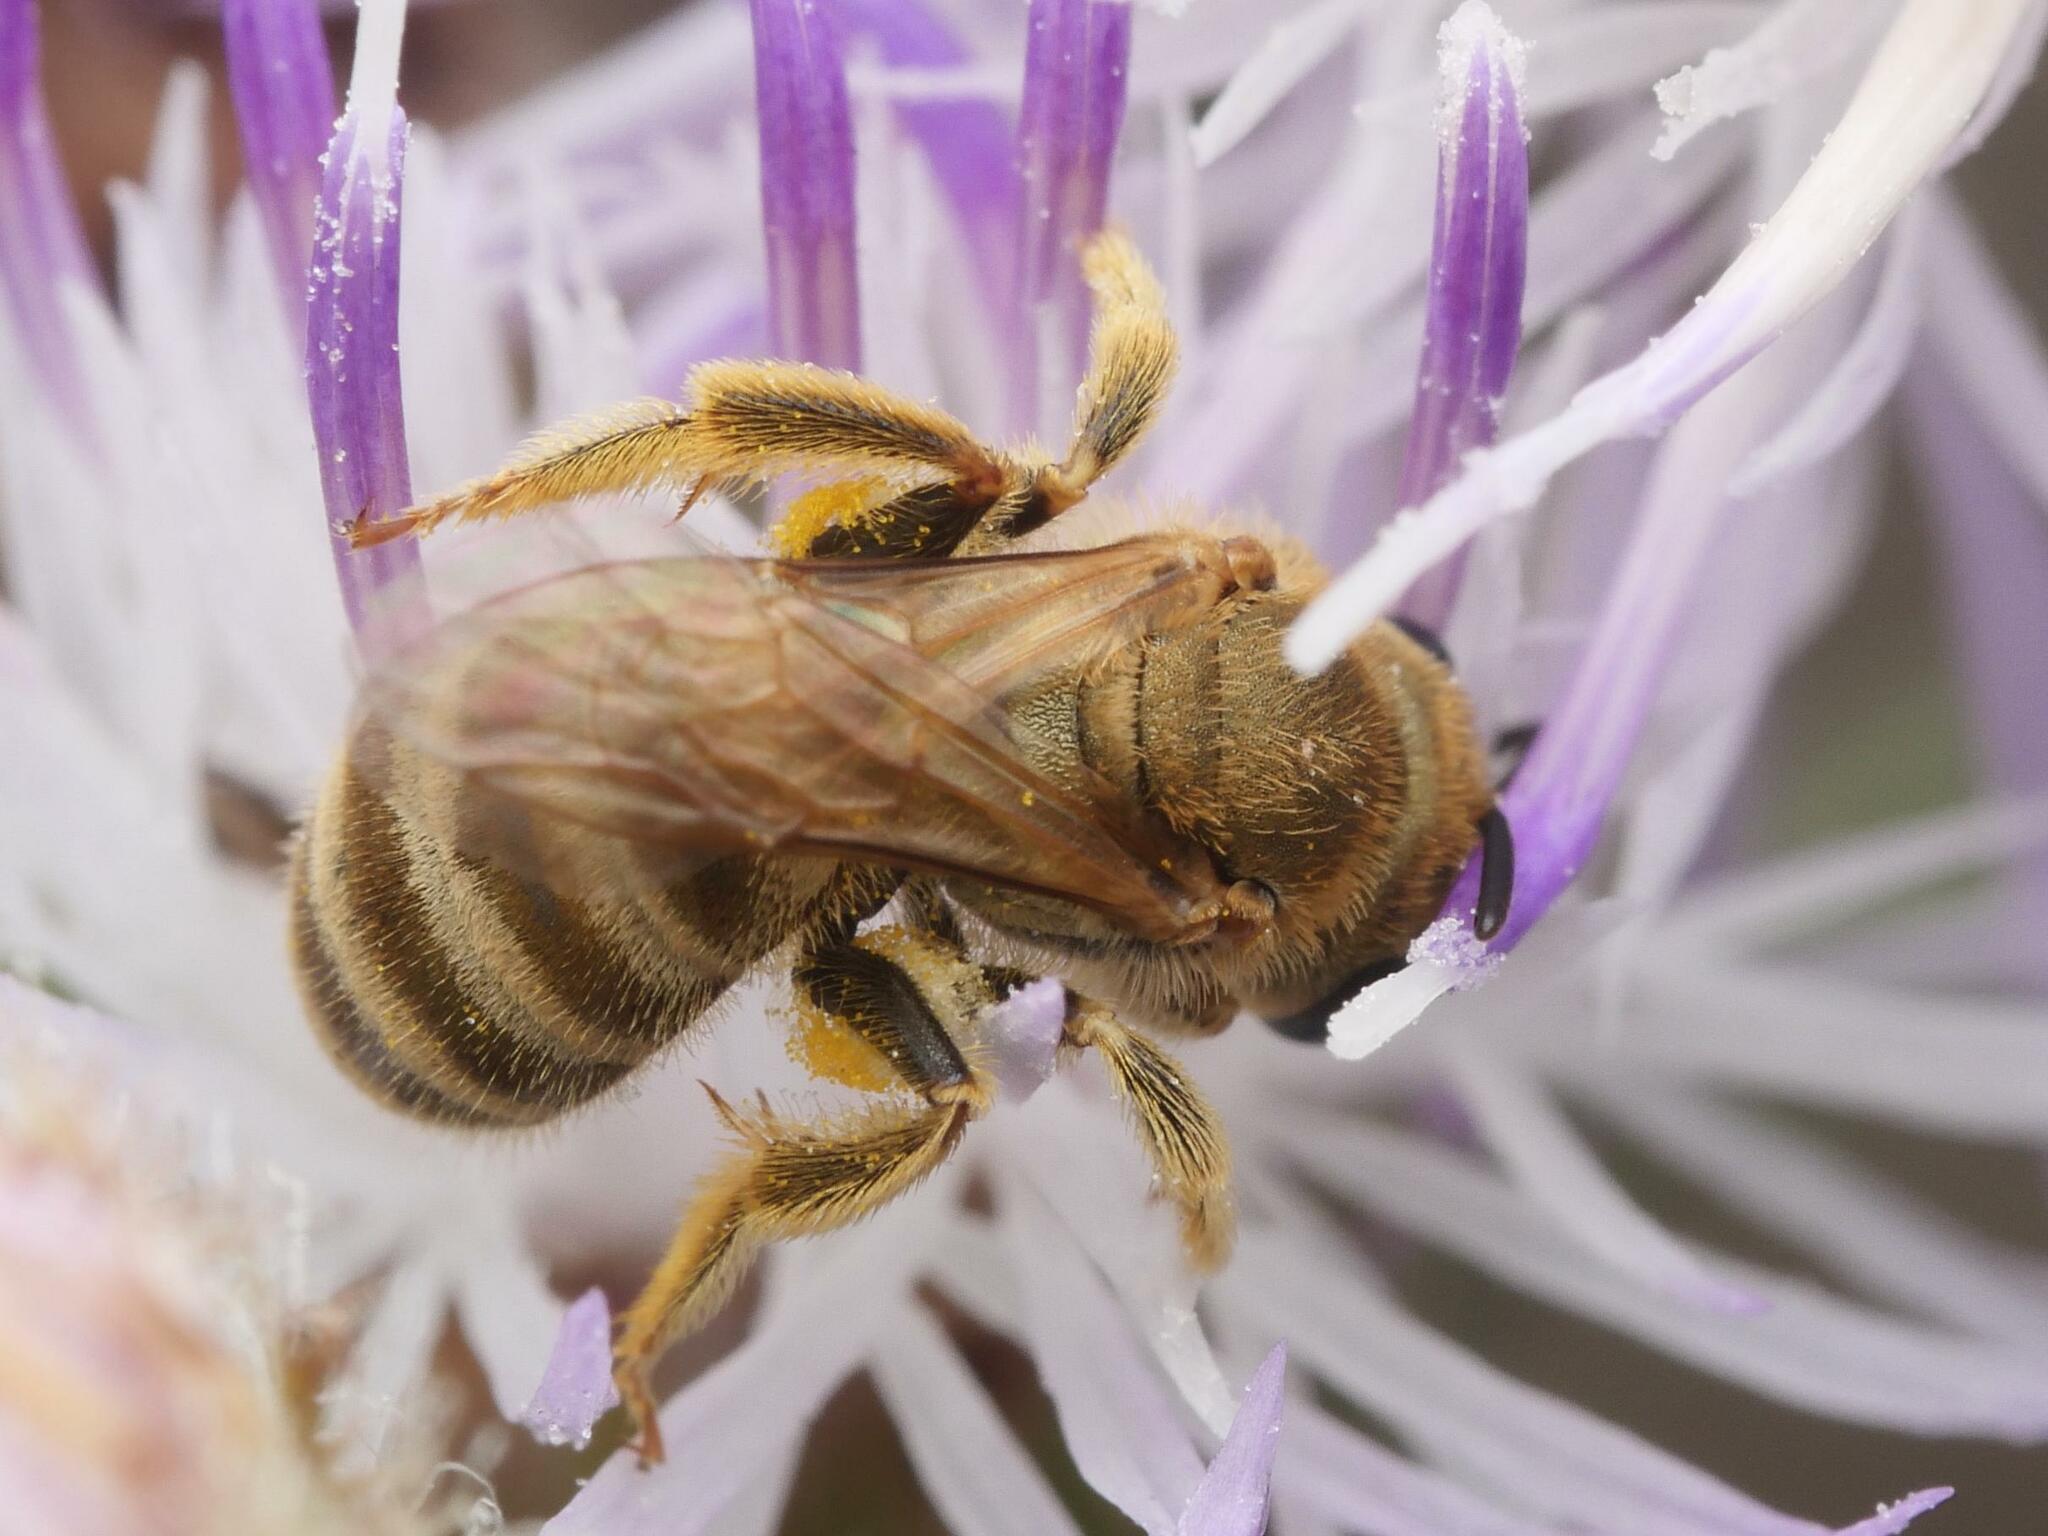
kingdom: Animalia
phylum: Arthropoda
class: Insecta
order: Hymenoptera
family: Halictidae
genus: Halictus
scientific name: Halictus subauratus
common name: Golden furrow bee
